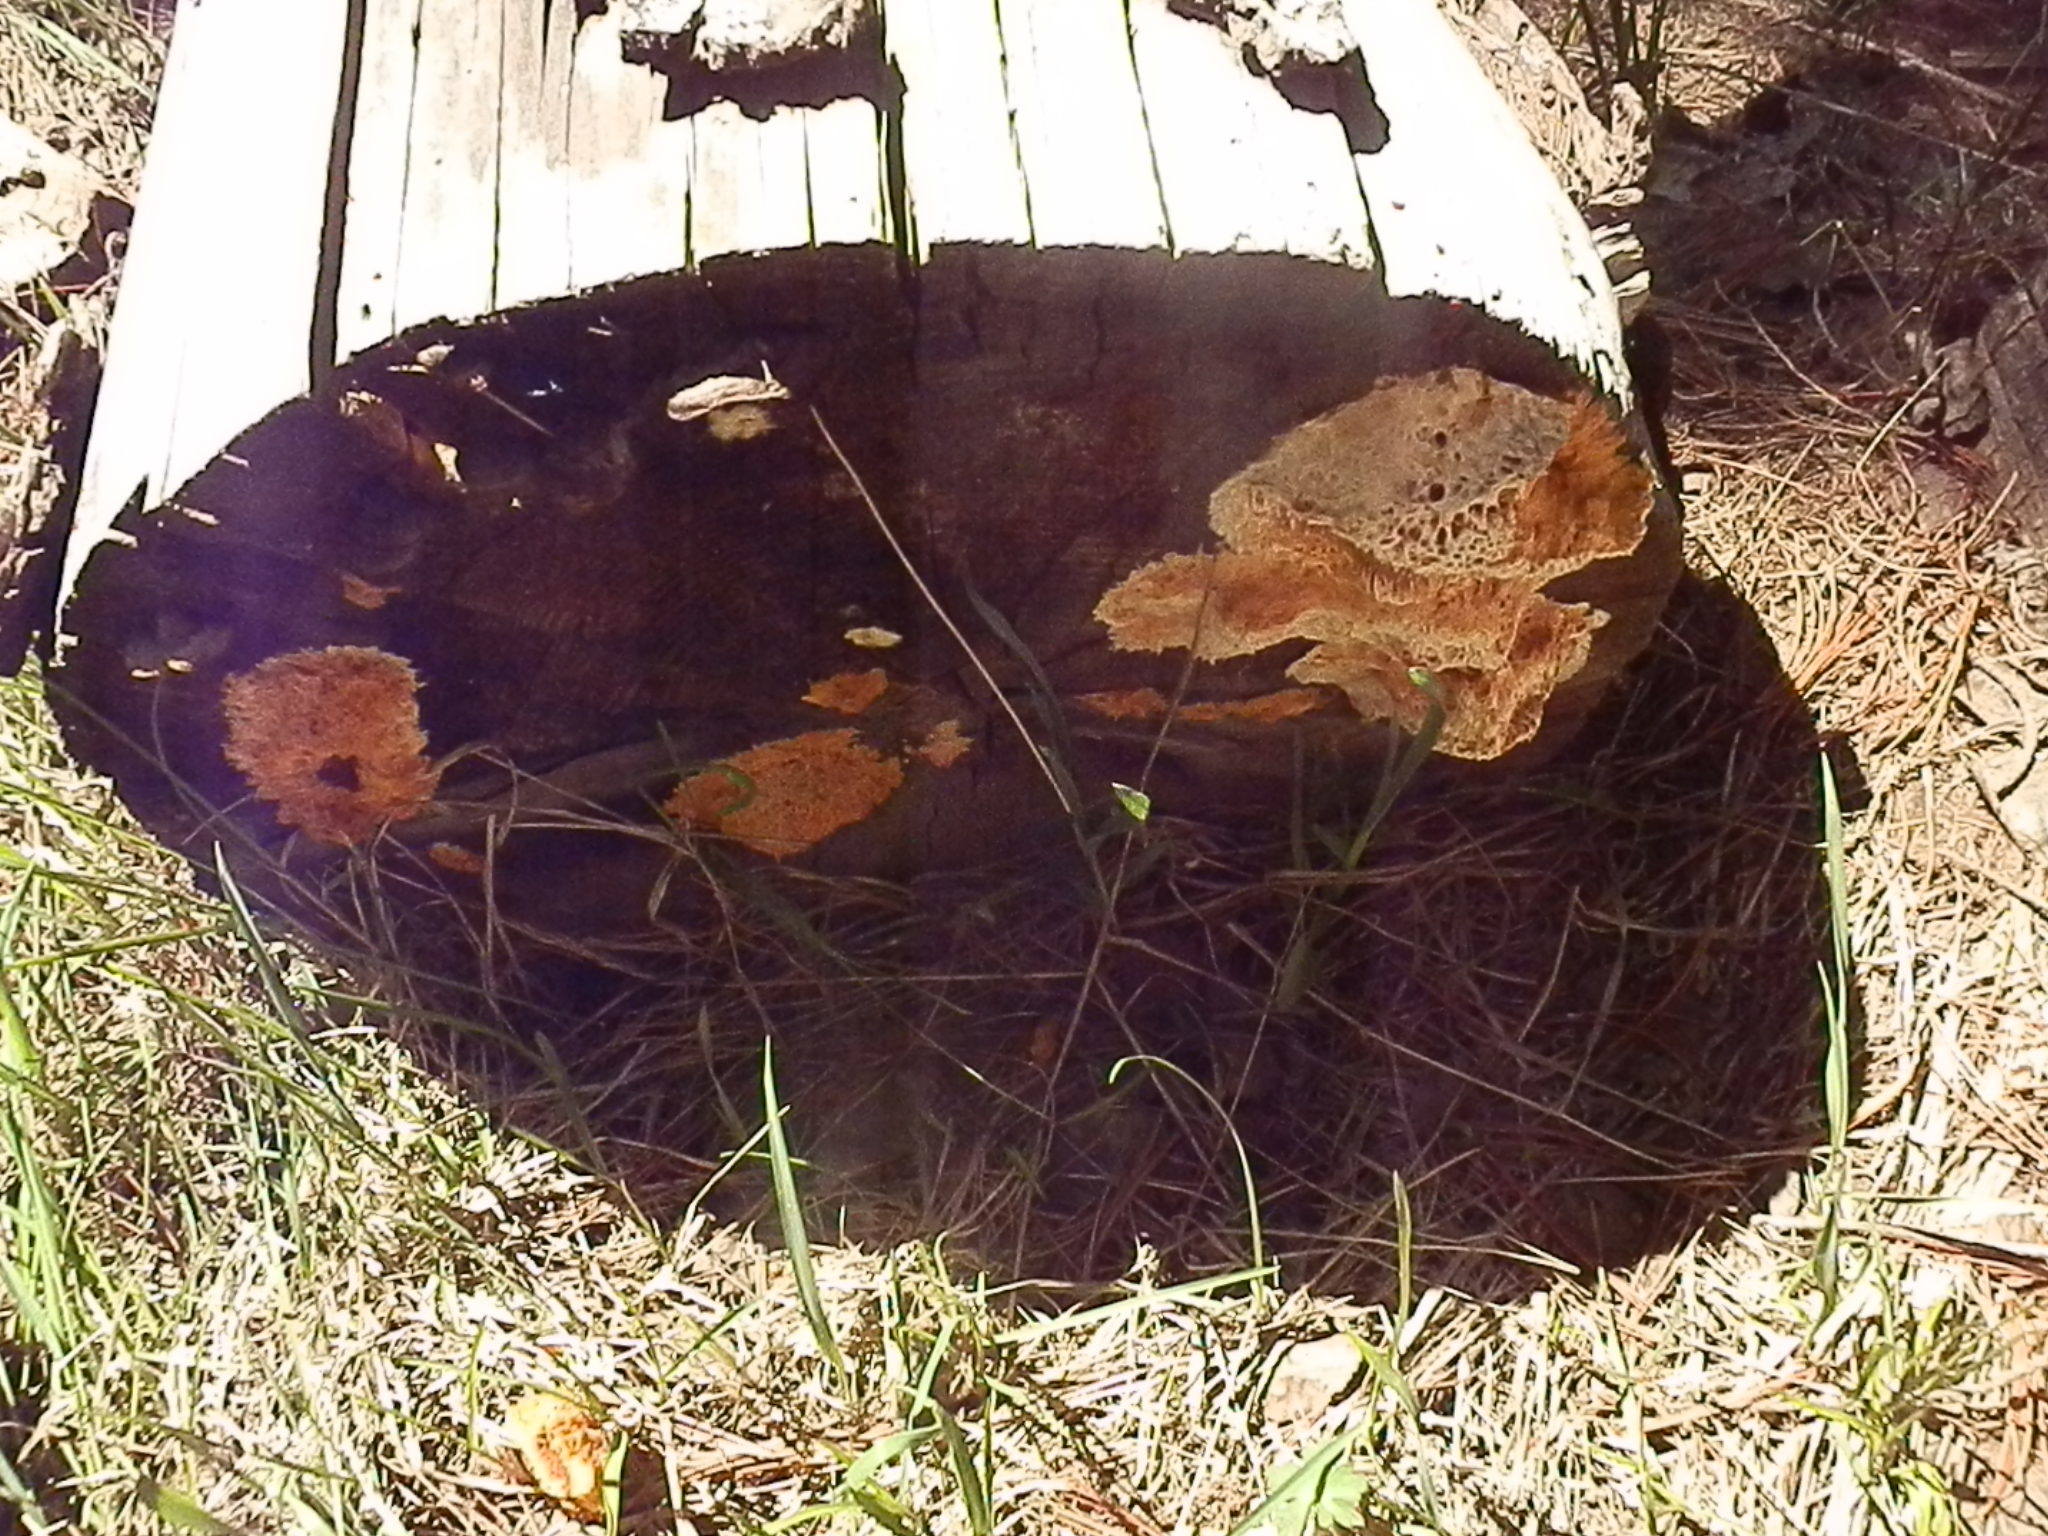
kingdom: Fungi
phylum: Basidiomycota
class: Agaricomycetes
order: Polyporales
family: Pycnoporellaceae
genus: Pycnoporellus
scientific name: Pycnoporellus alboluteus
